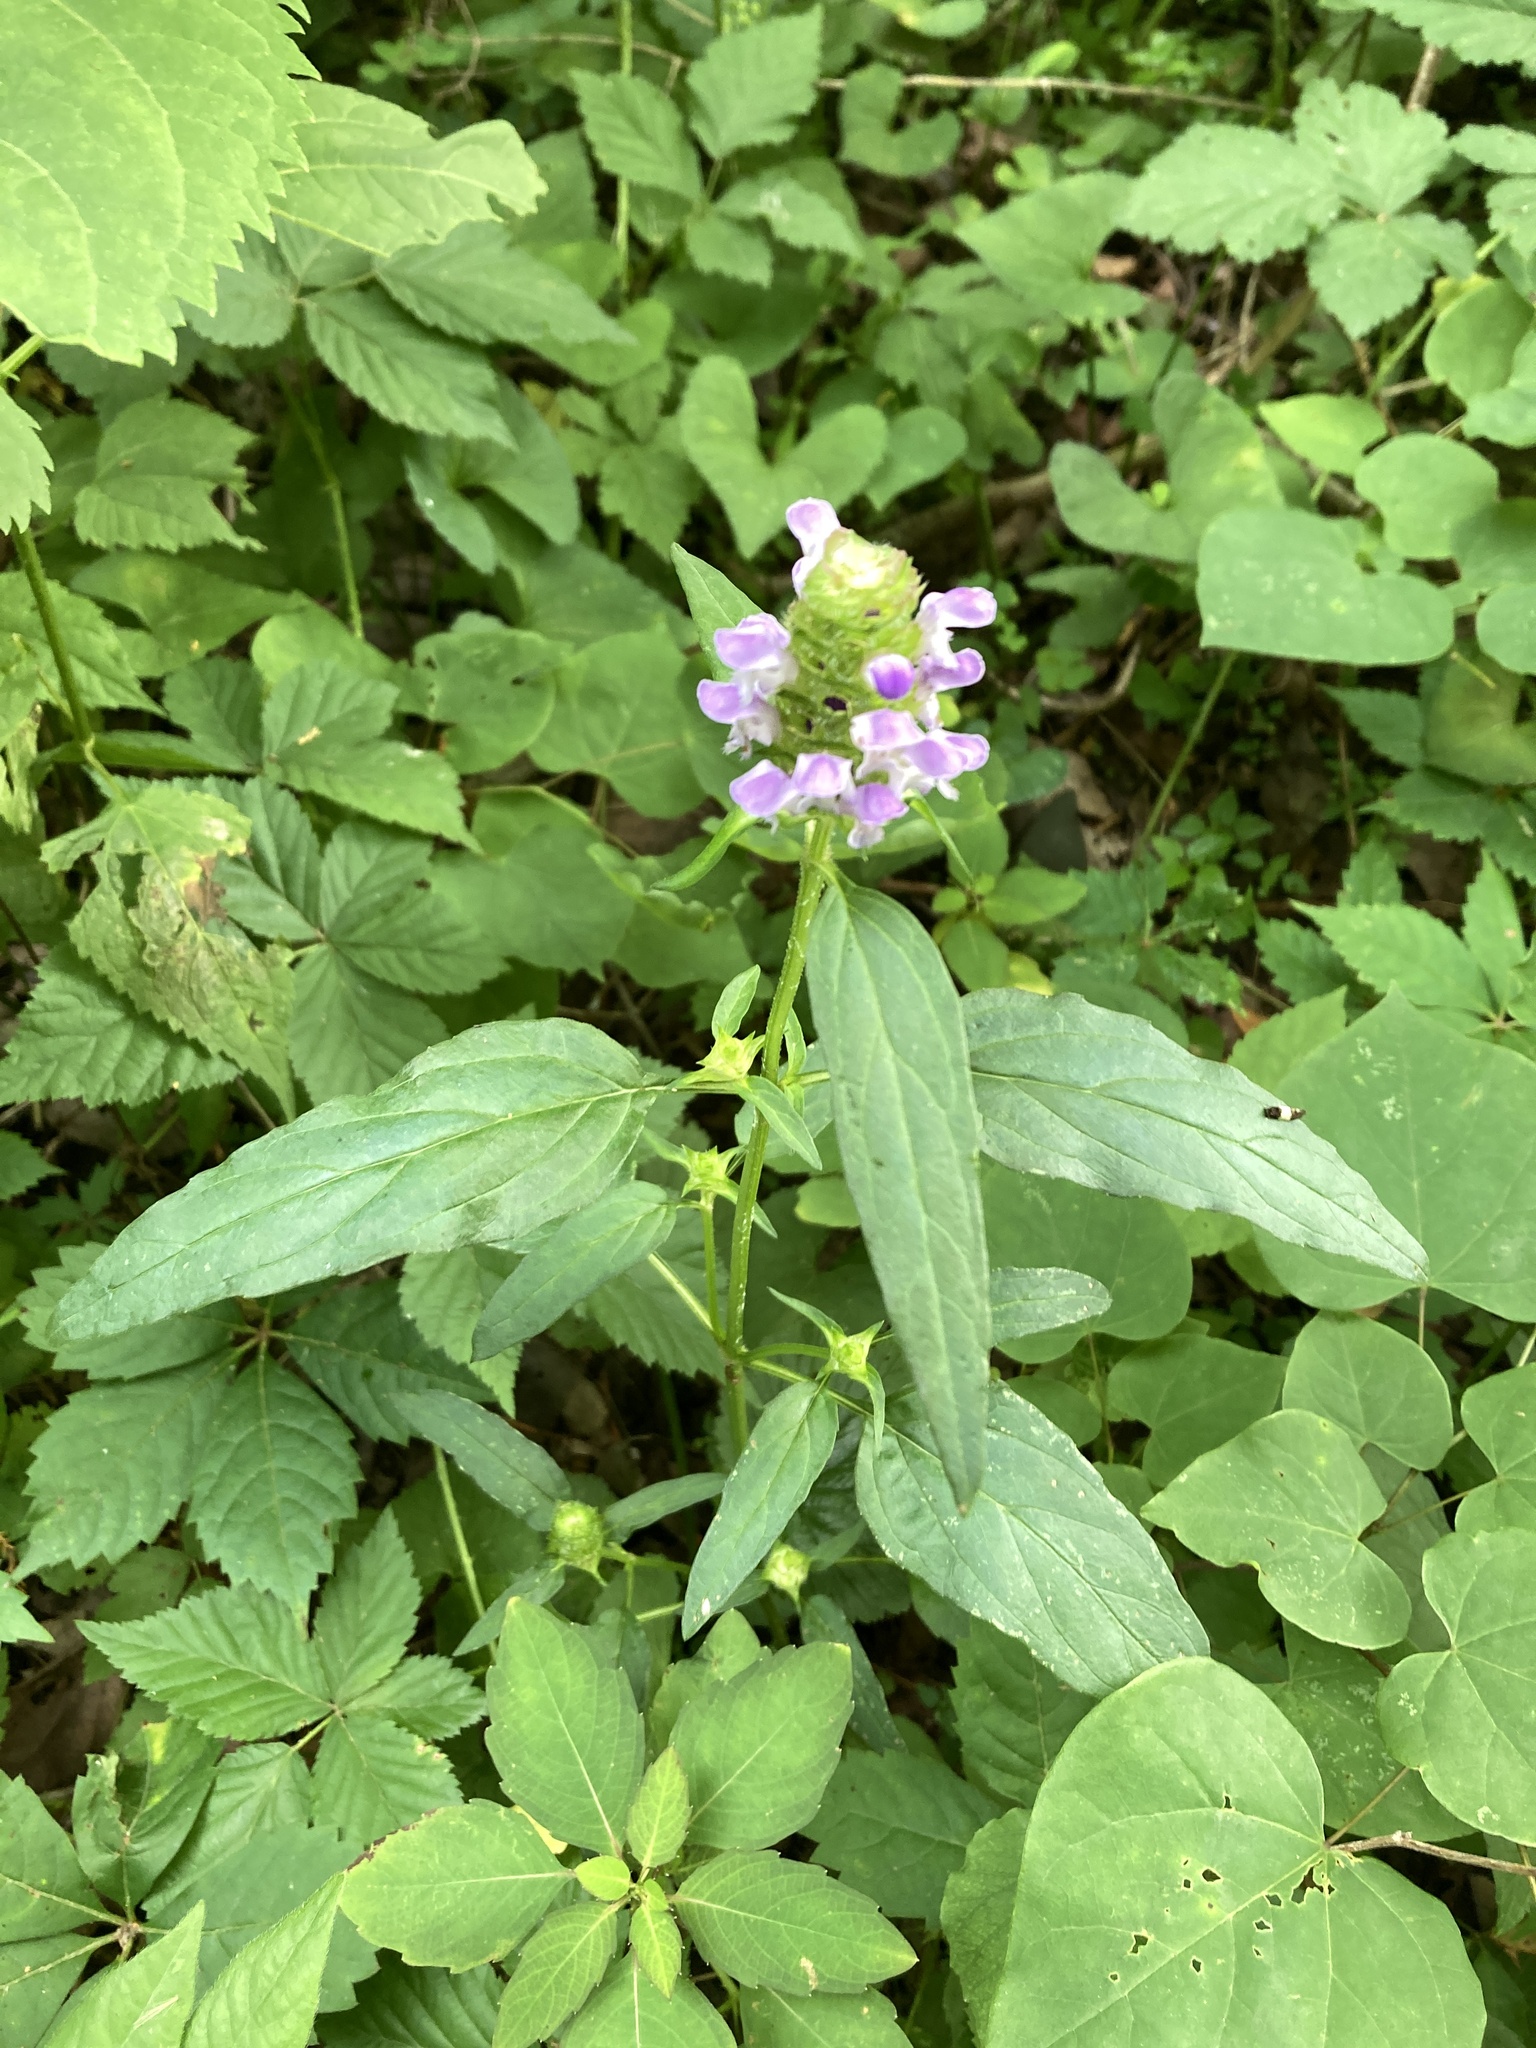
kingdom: Plantae
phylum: Tracheophyta
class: Magnoliopsida
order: Lamiales
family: Lamiaceae
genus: Prunella
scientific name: Prunella vulgaris
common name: Heal-all
